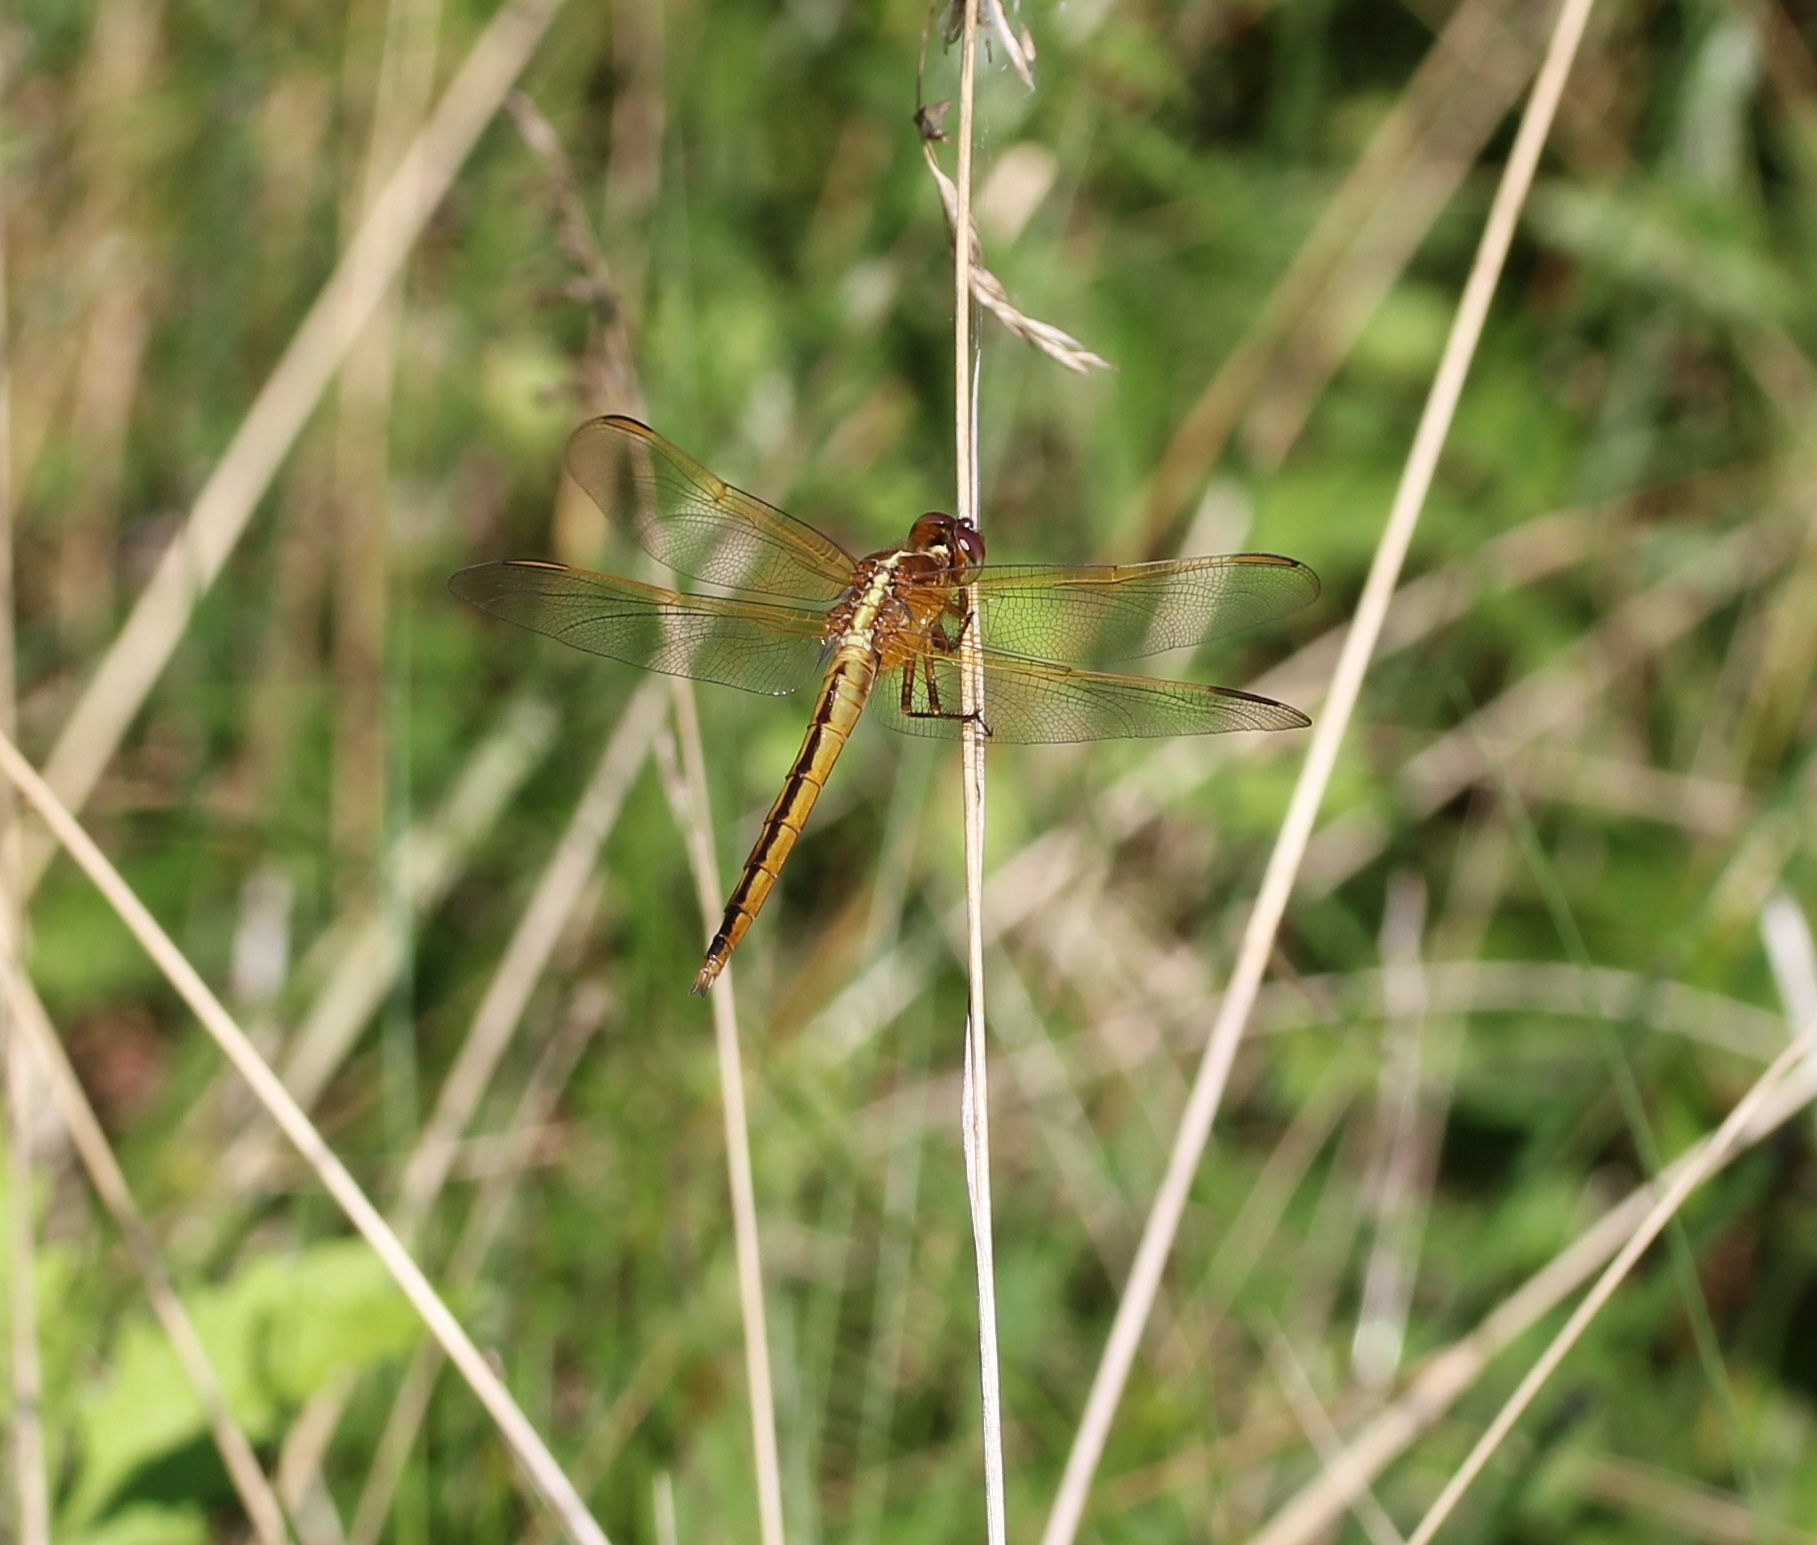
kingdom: Animalia
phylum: Arthropoda
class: Insecta
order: Odonata
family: Libellulidae
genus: Libellula
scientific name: Libellula needhami
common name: Needham's skimmer
